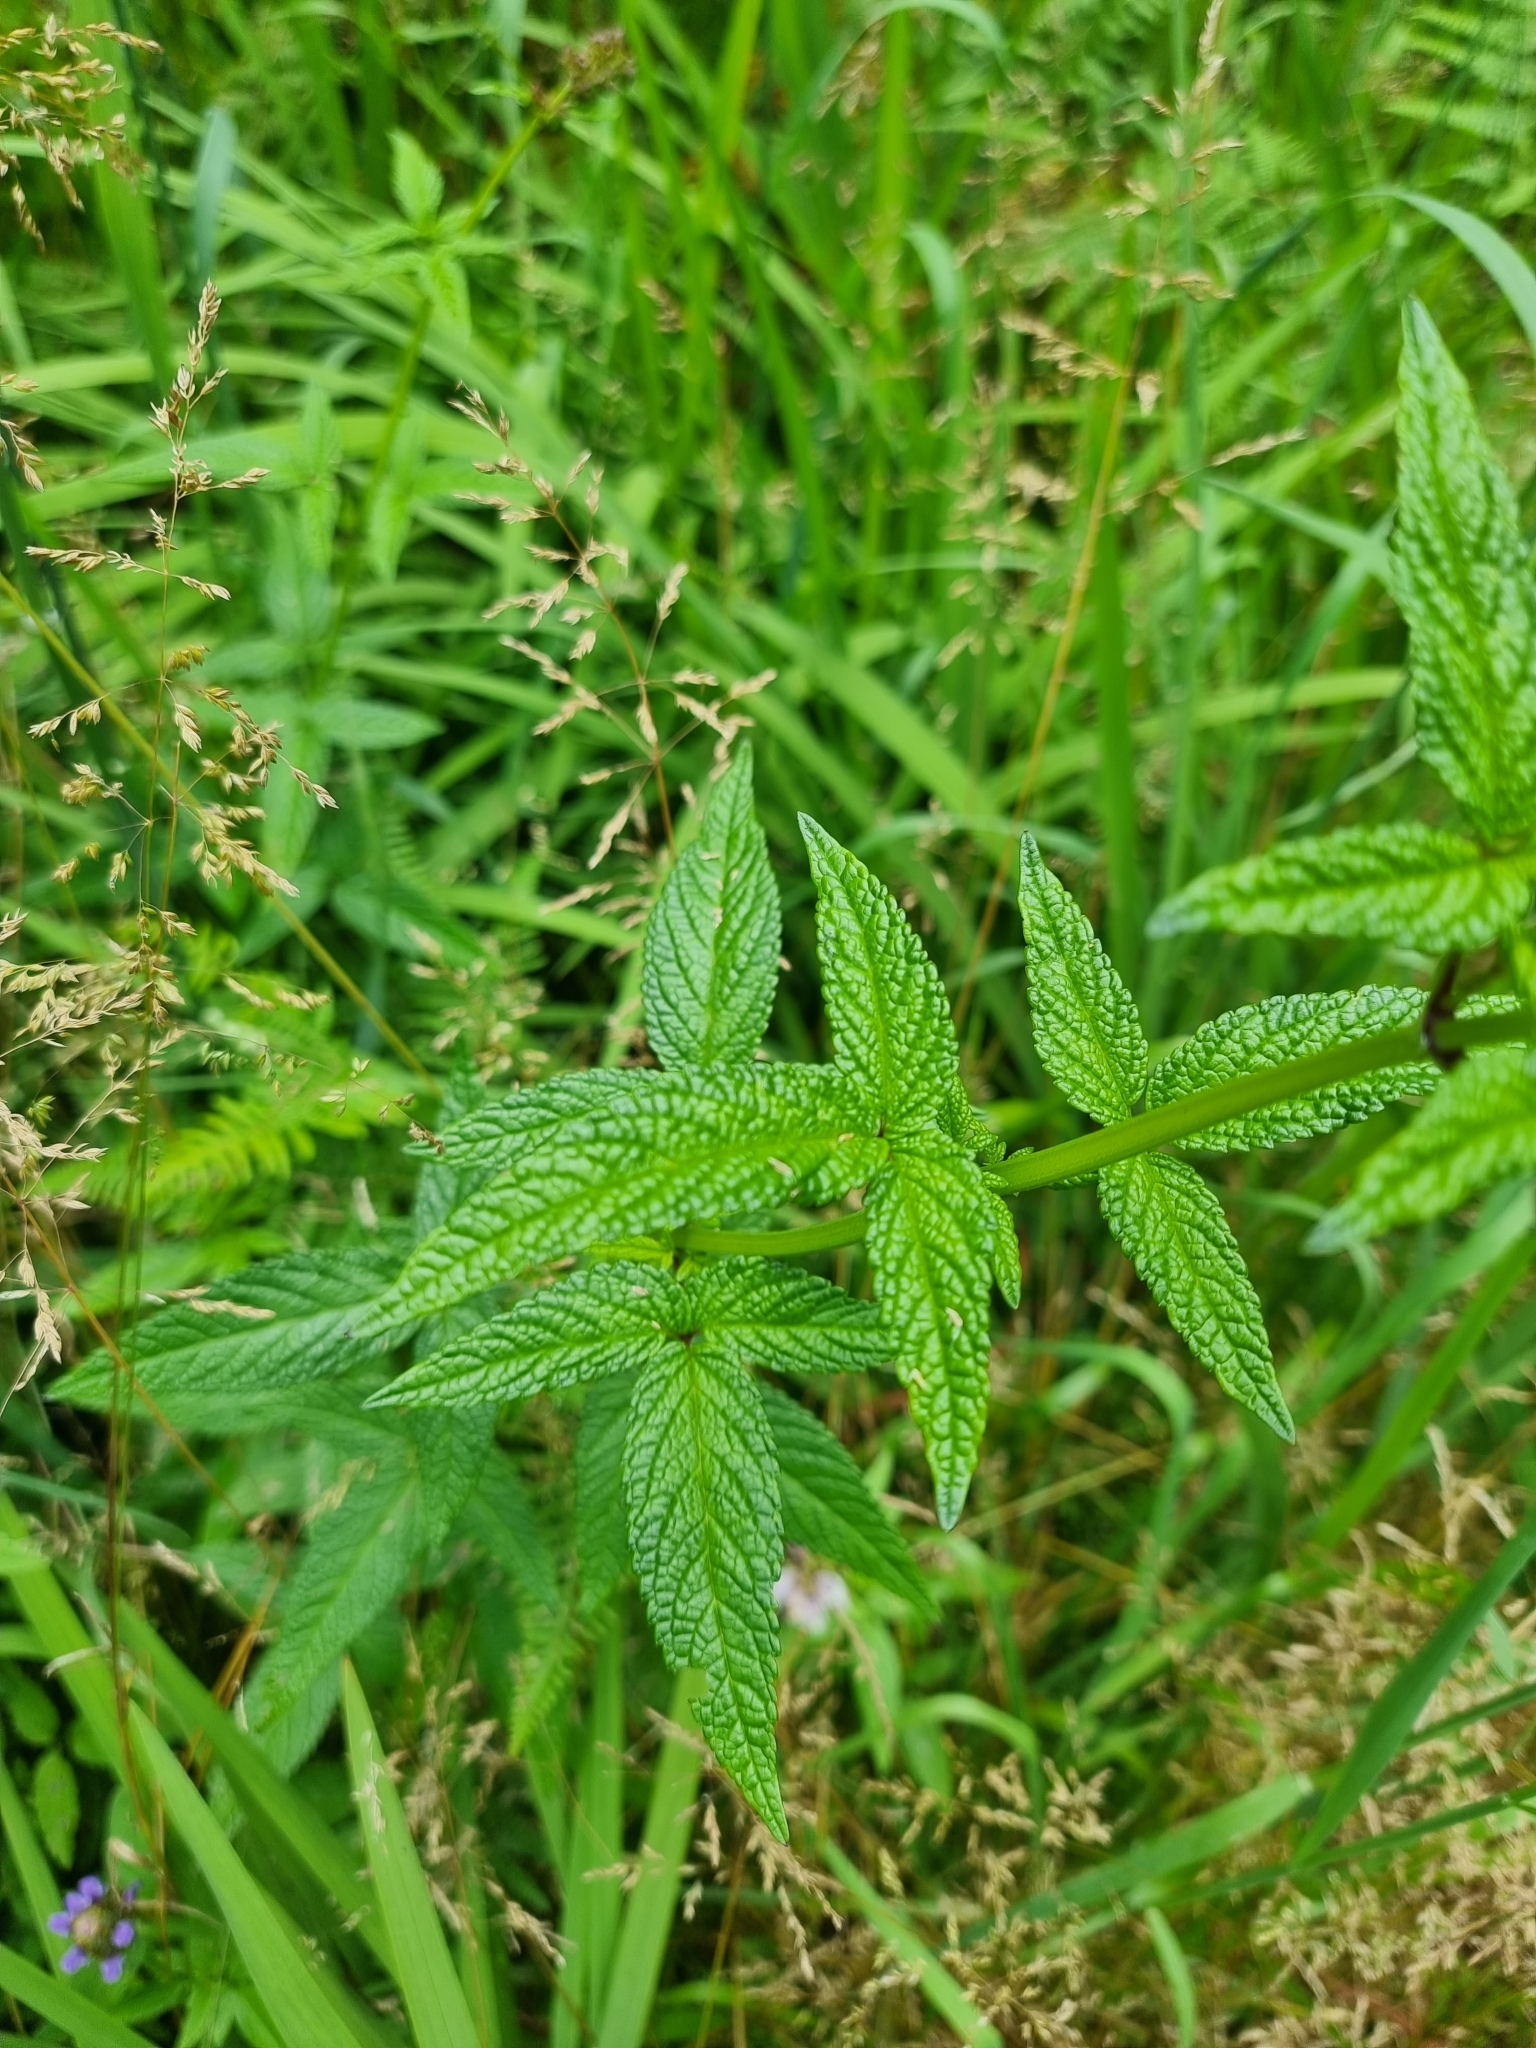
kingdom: Plantae
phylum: Tracheophyta
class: Magnoliopsida
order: Lamiales
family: Lamiaceae
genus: Cedronella
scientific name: Cedronella canariensis
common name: Canary islands balm
